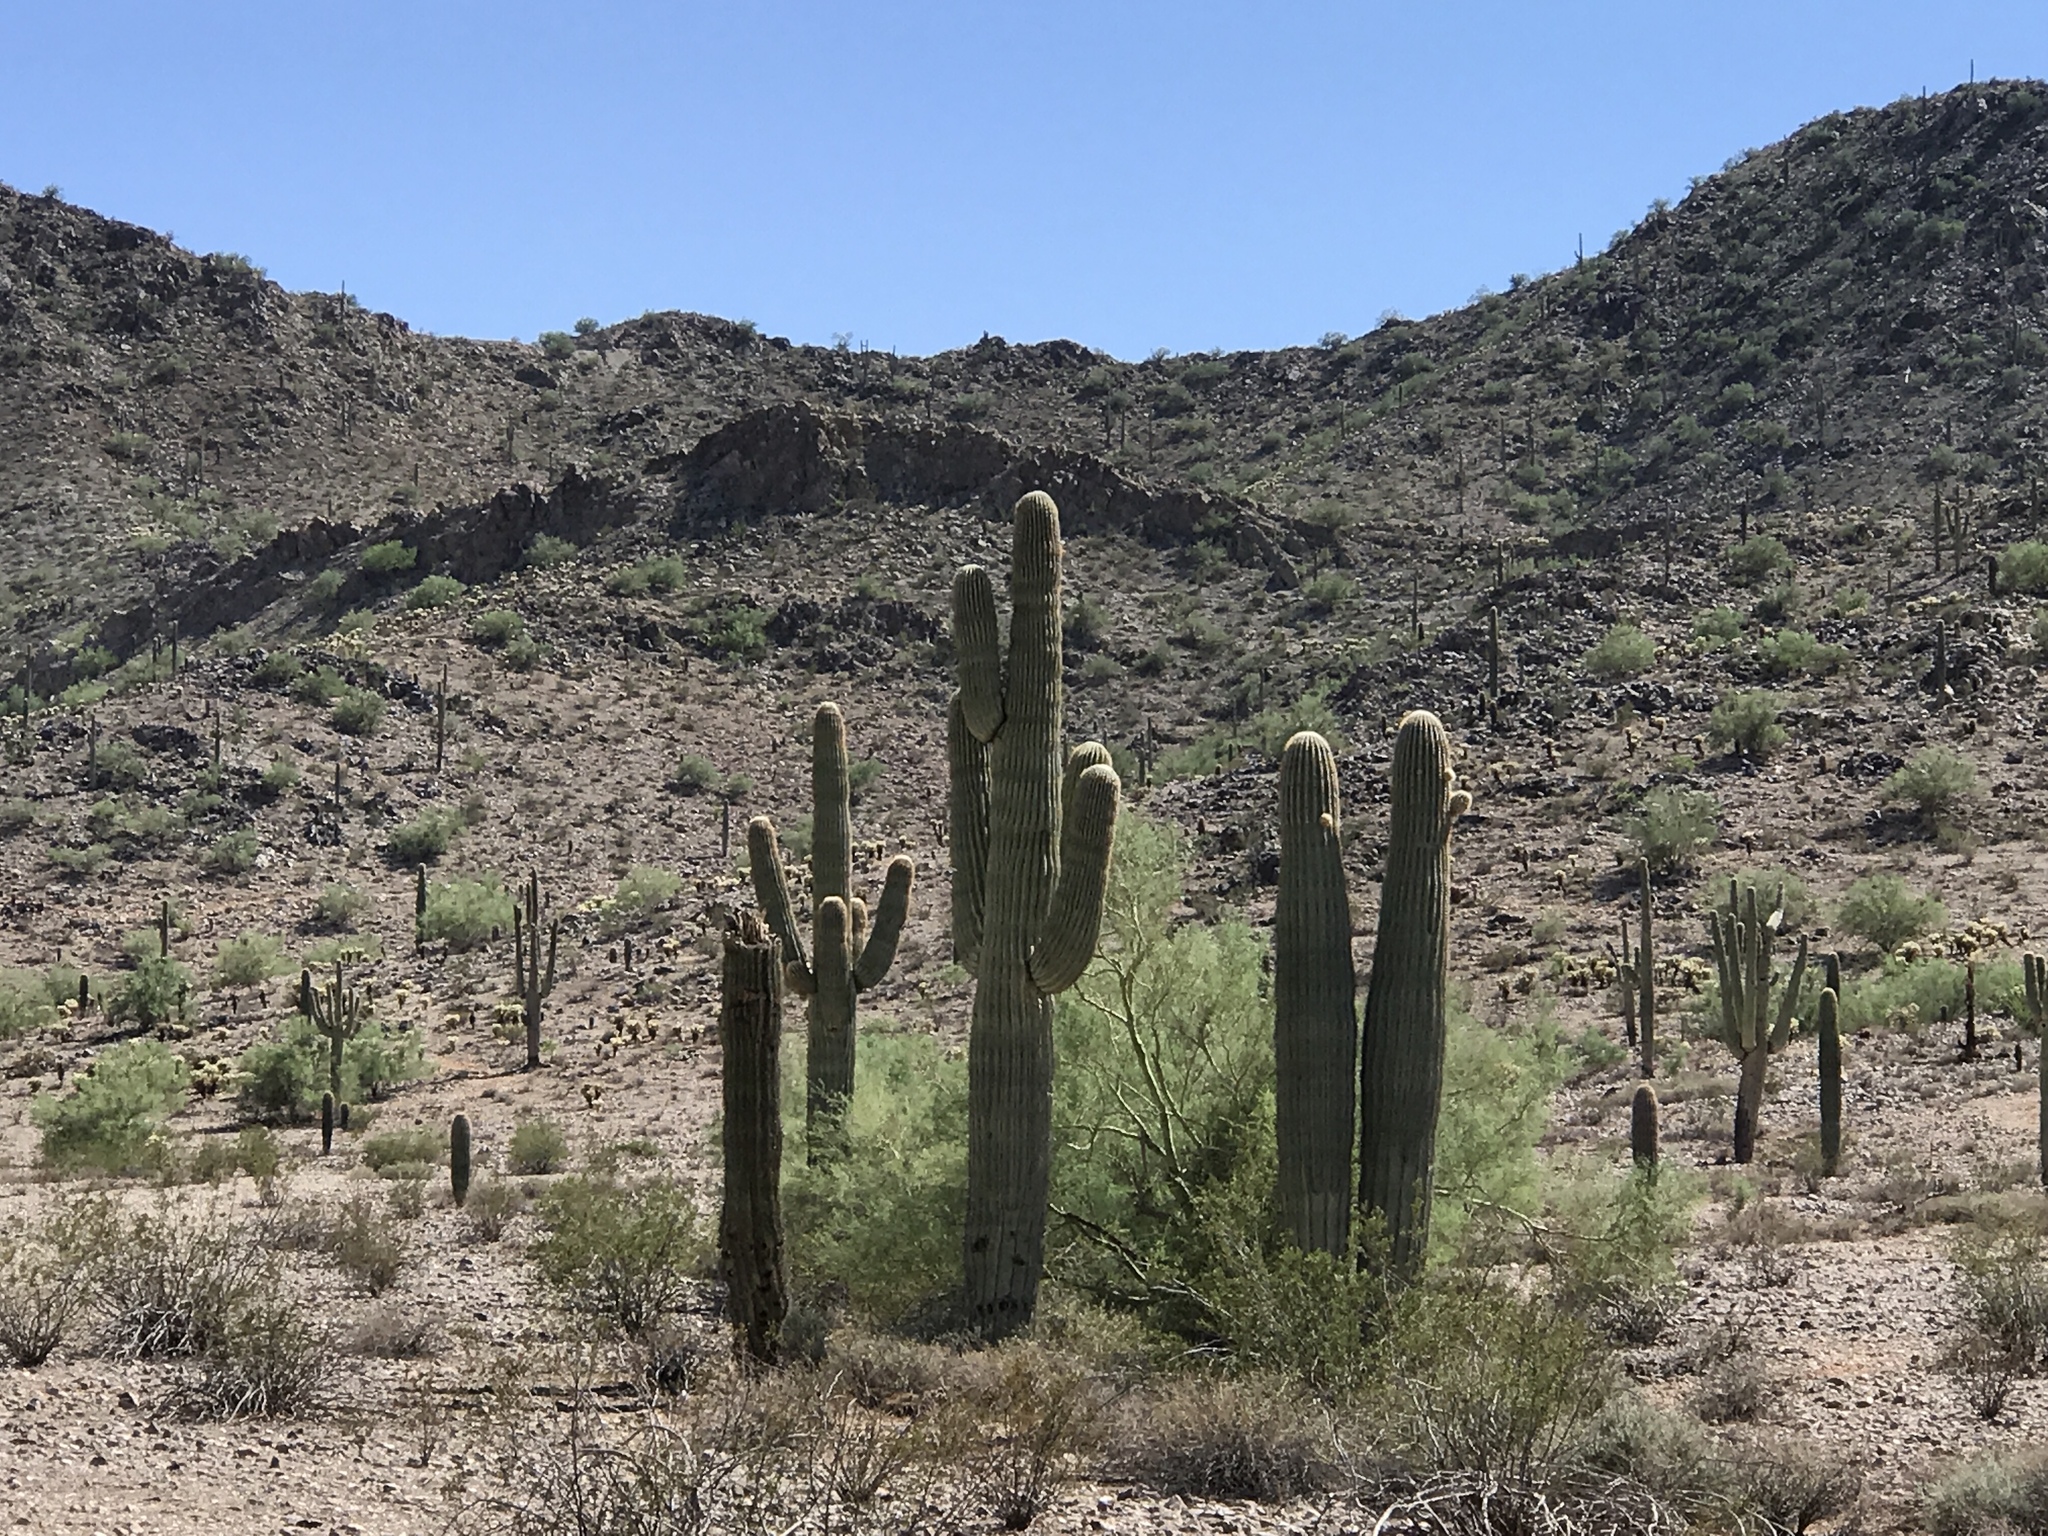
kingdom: Plantae
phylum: Tracheophyta
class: Magnoliopsida
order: Caryophyllales
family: Cactaceae
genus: Carnegiea
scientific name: Carnegiea gigantea
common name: Saguaro
